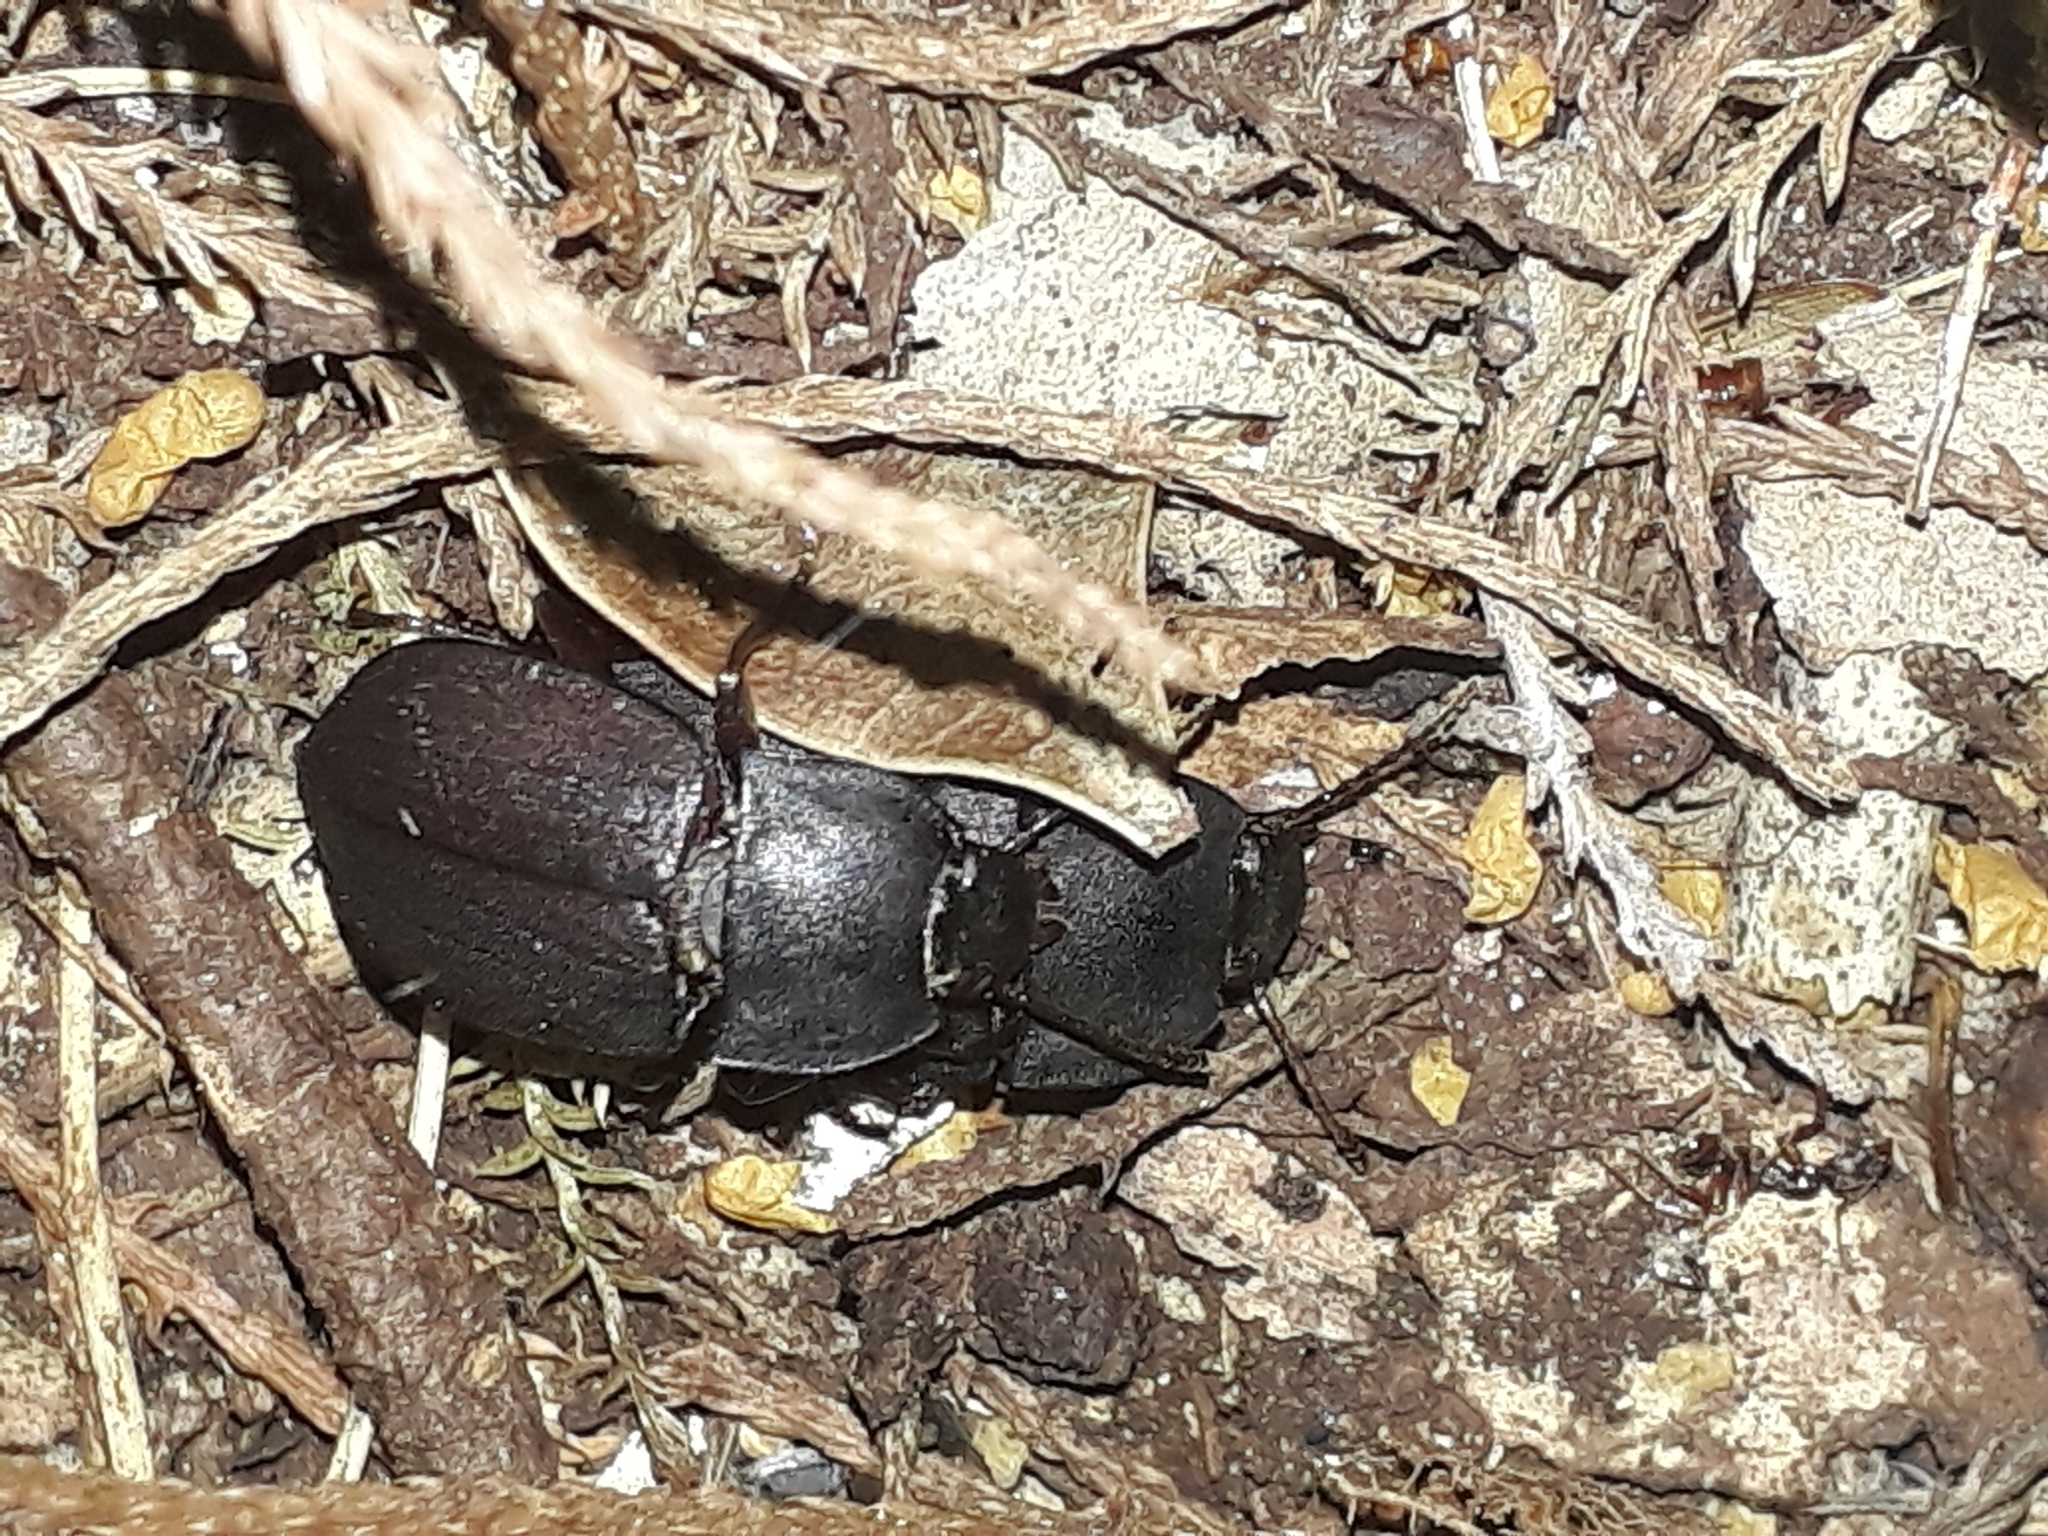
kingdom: Animalia
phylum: Arthropoda
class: Insecta
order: Coleoptera
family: Tenebrionidae
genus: Mimopeus
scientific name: Mimopeus
